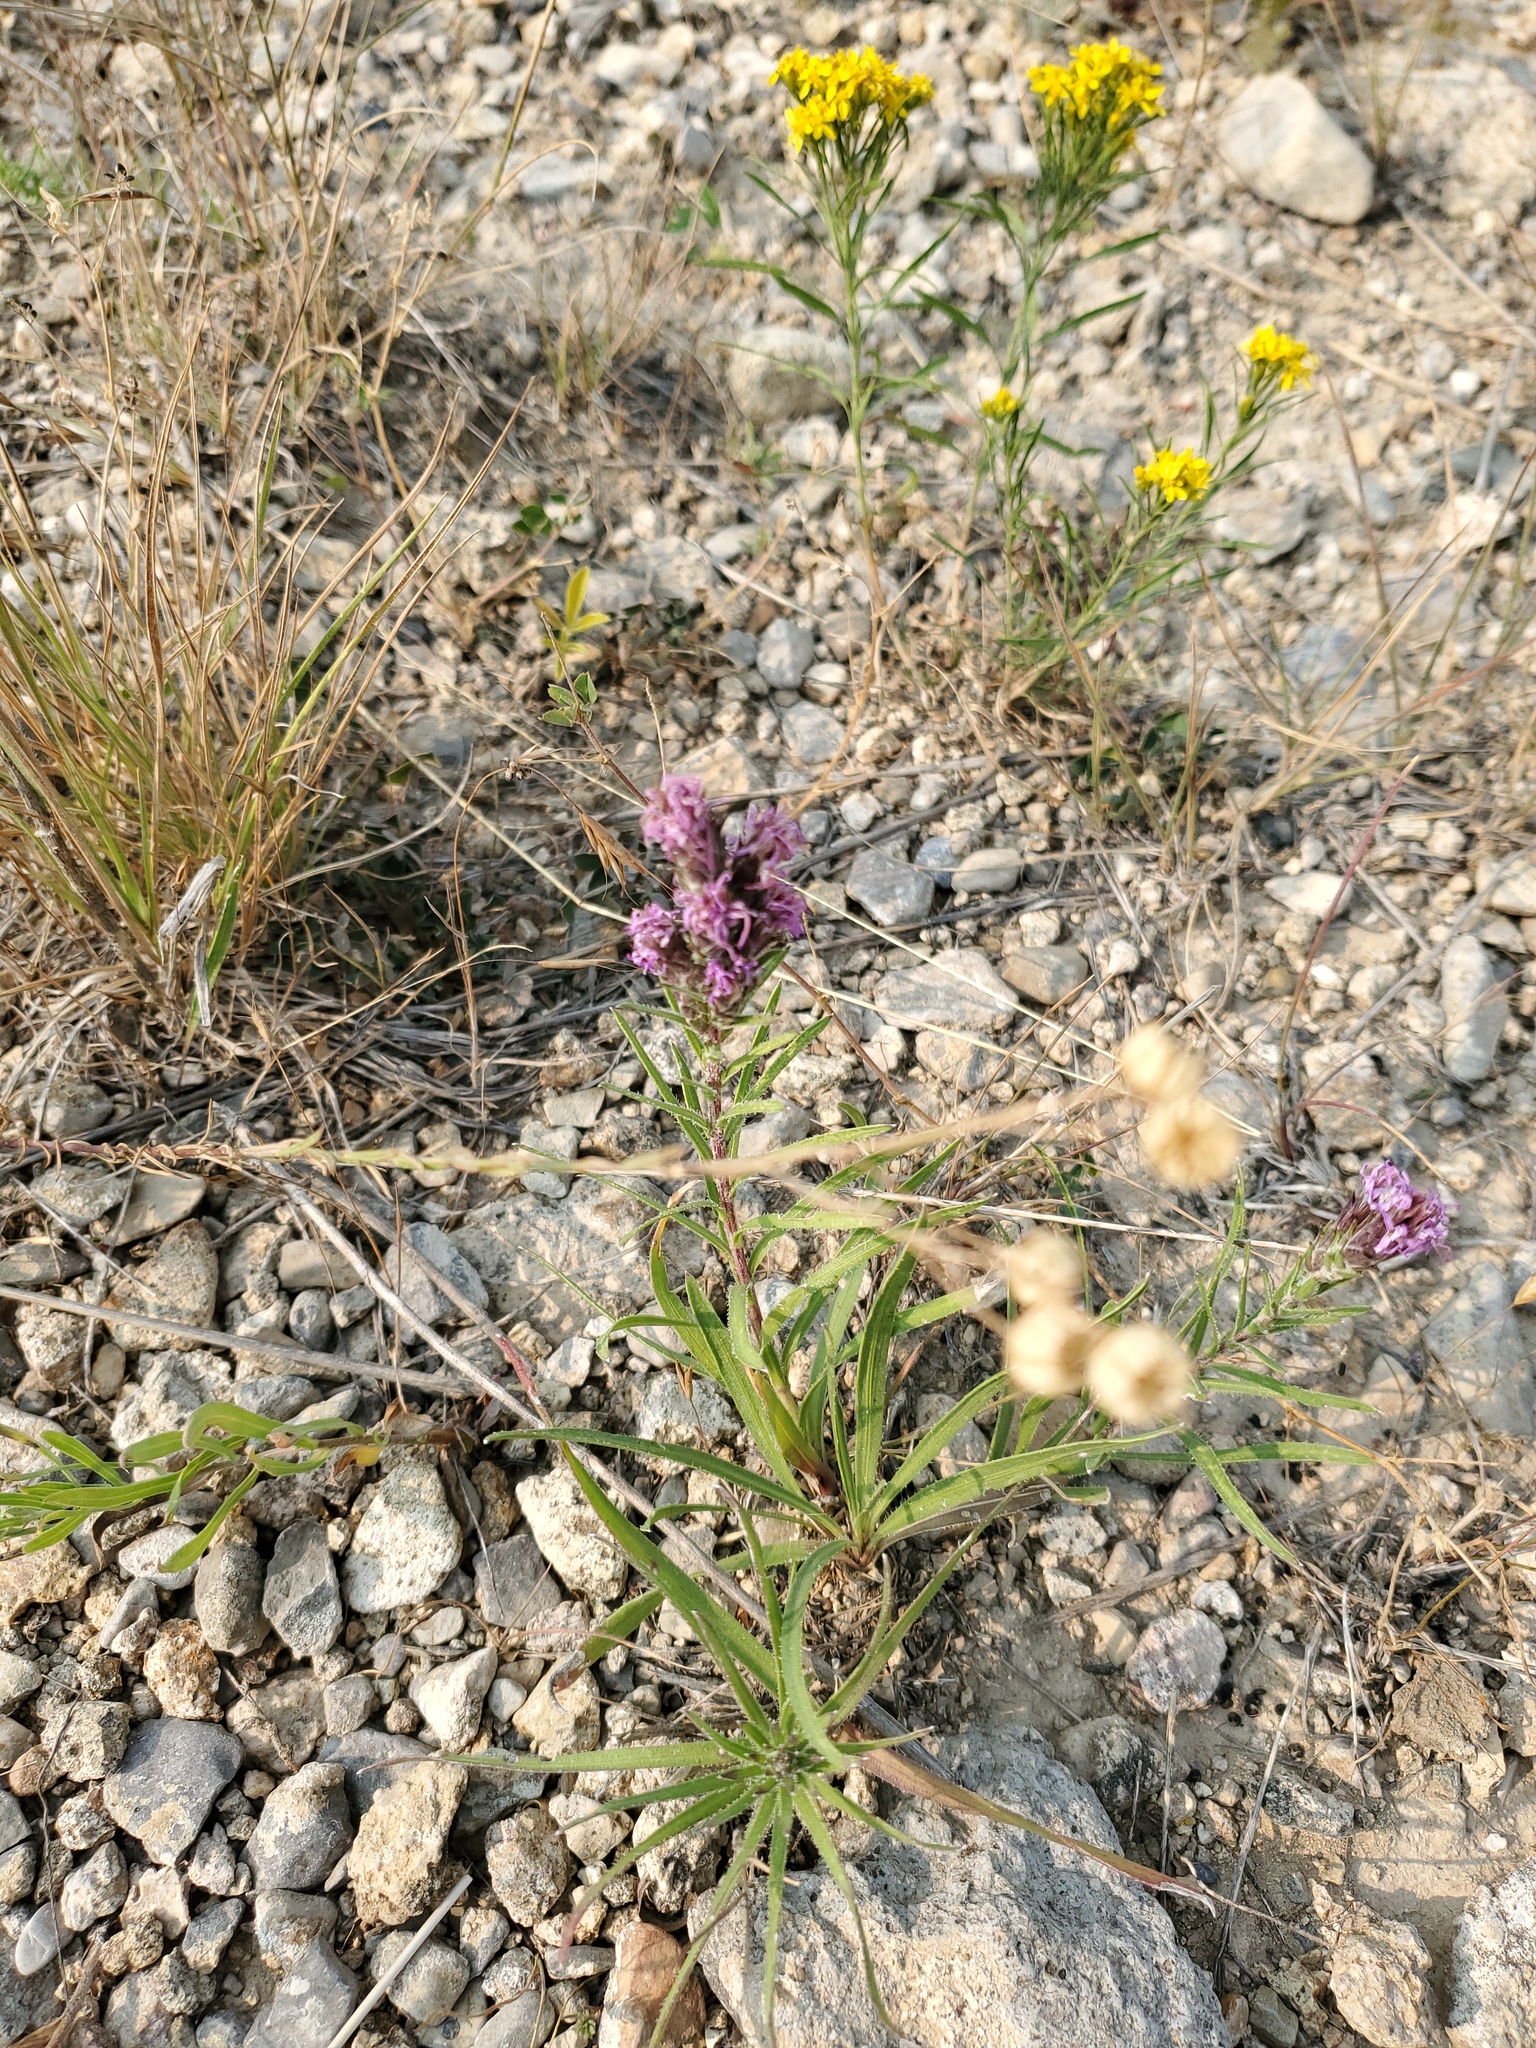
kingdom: Plantae
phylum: Tracheophyta
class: Magnoliopsida
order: Asterales
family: Asteraceae
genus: Liatris
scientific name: Liatris punctata
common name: Dotted gayfeather
